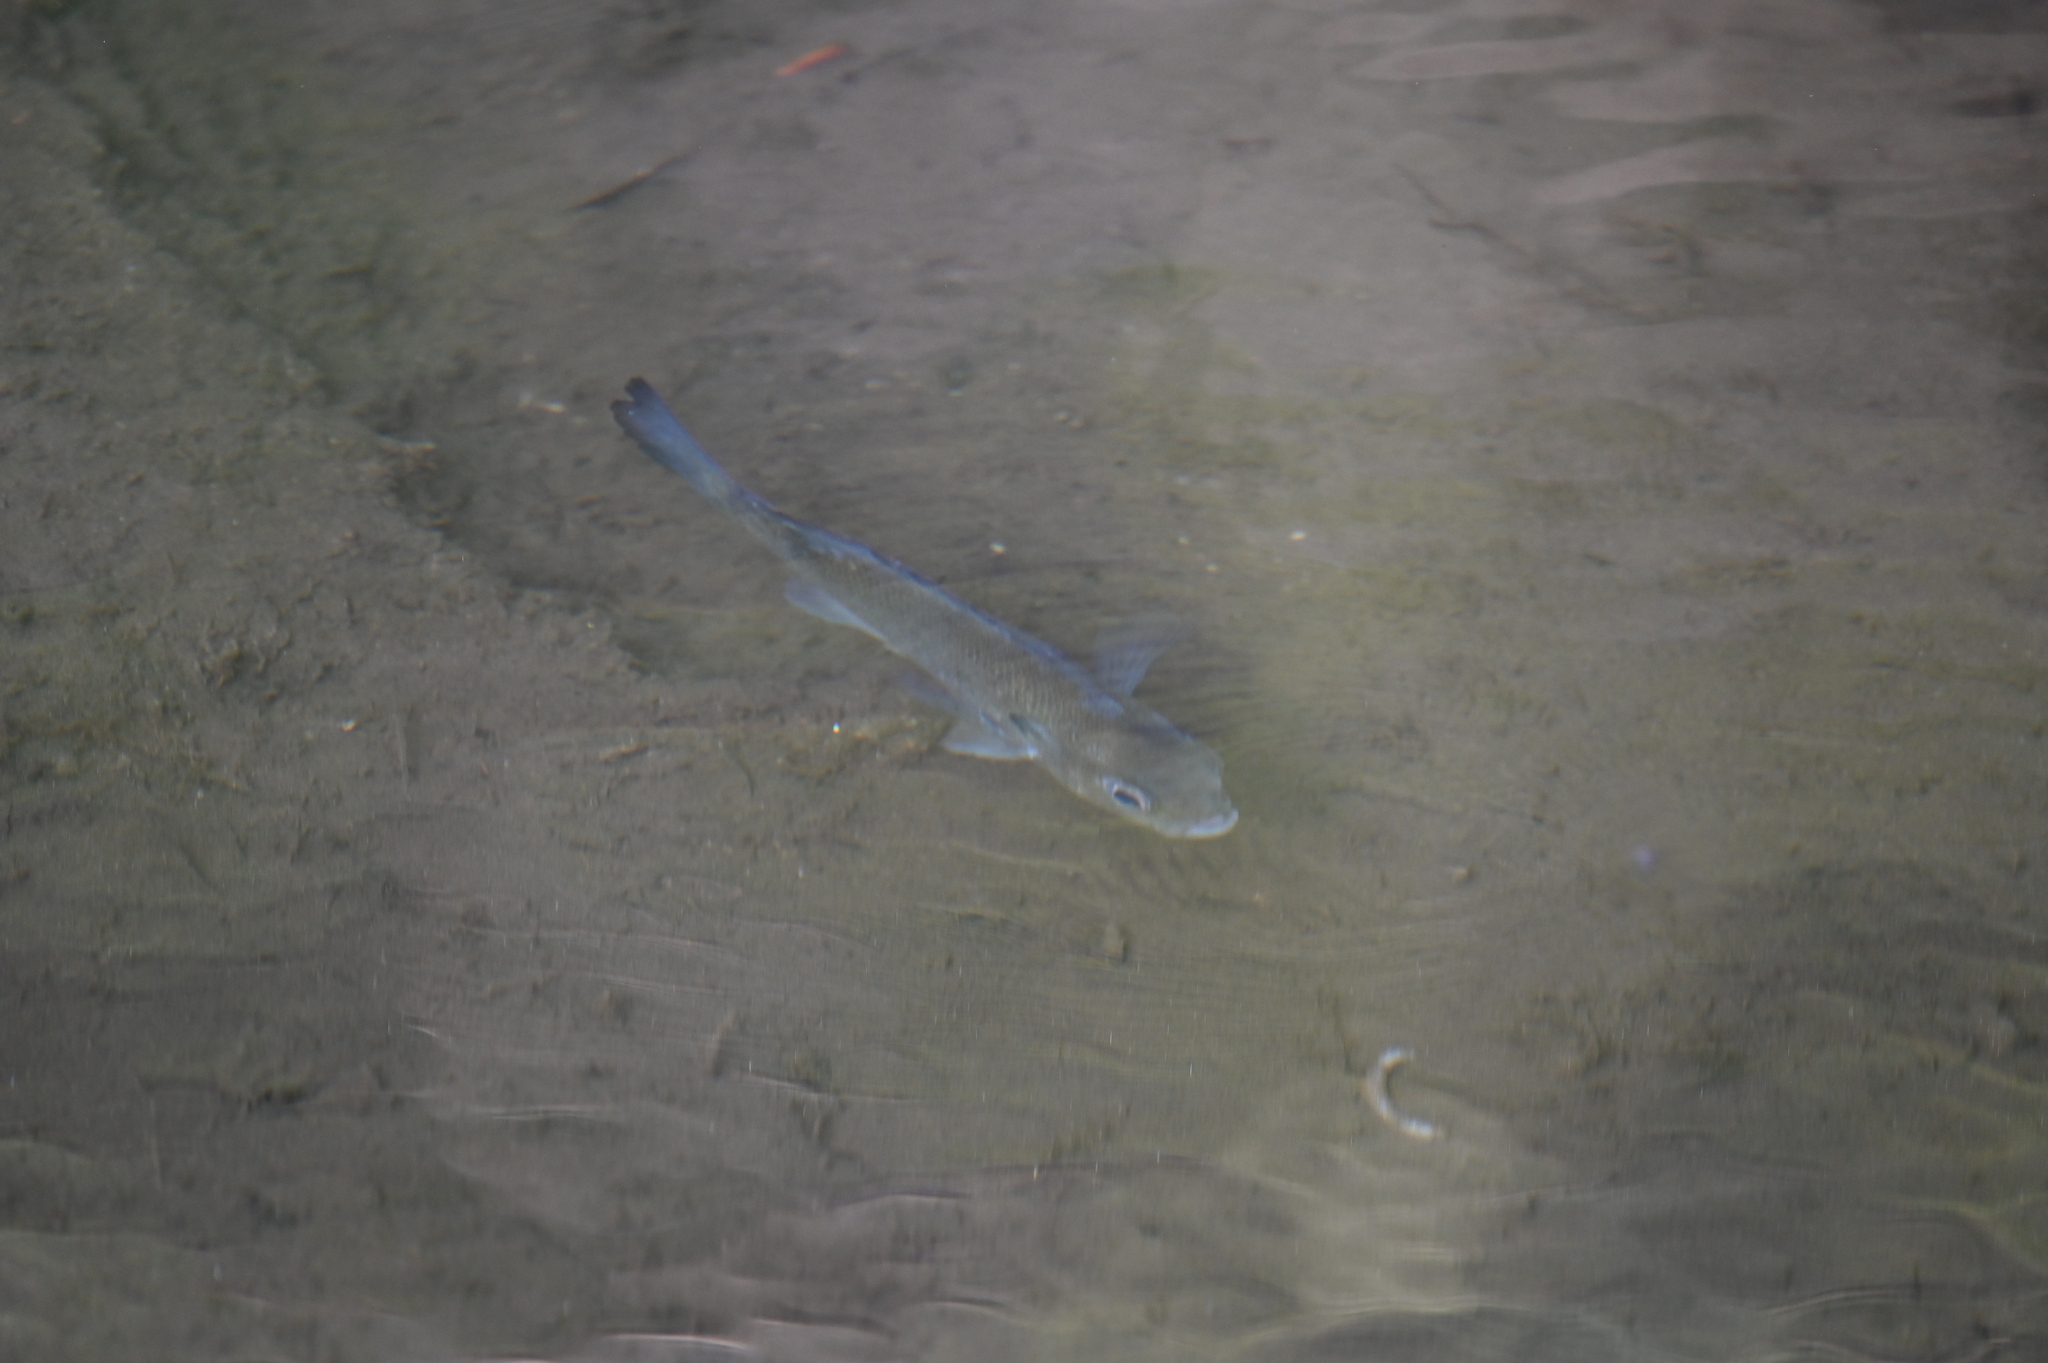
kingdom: Animalia
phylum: Chordata
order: Perciformes
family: Centrarchidae
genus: Lepomis
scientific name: Lepomis auritus
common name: Redbreast sunfish
